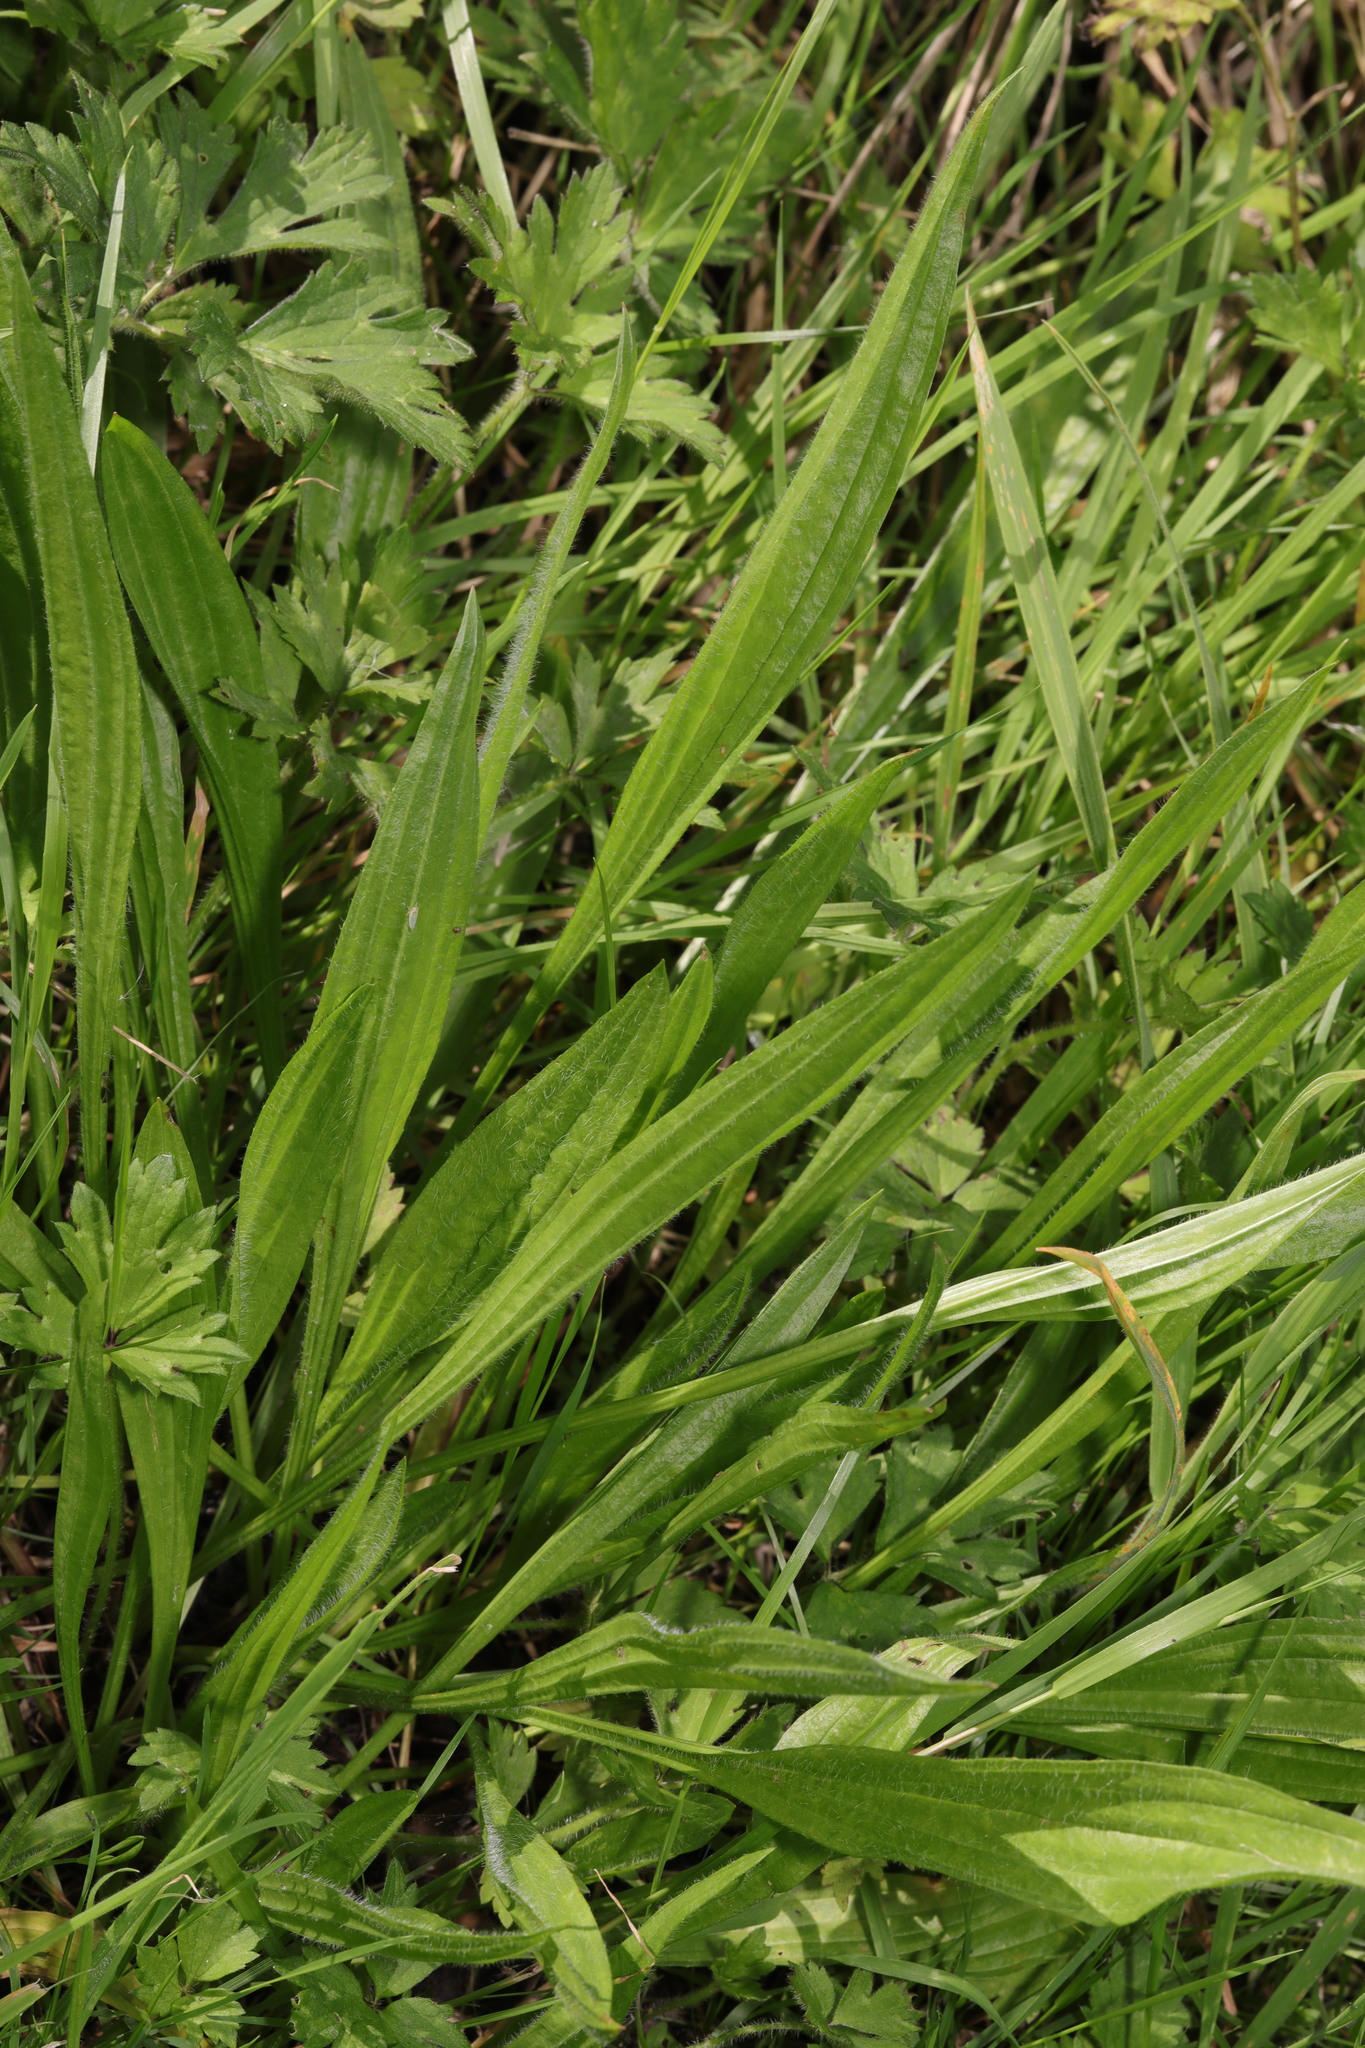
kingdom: Plantae
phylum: Tracheophyta
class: Magnoliopsida
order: Lamiales
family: Plantaginaceae
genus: Plantago
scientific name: Plantago lanceolata
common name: Ribwort plantain
